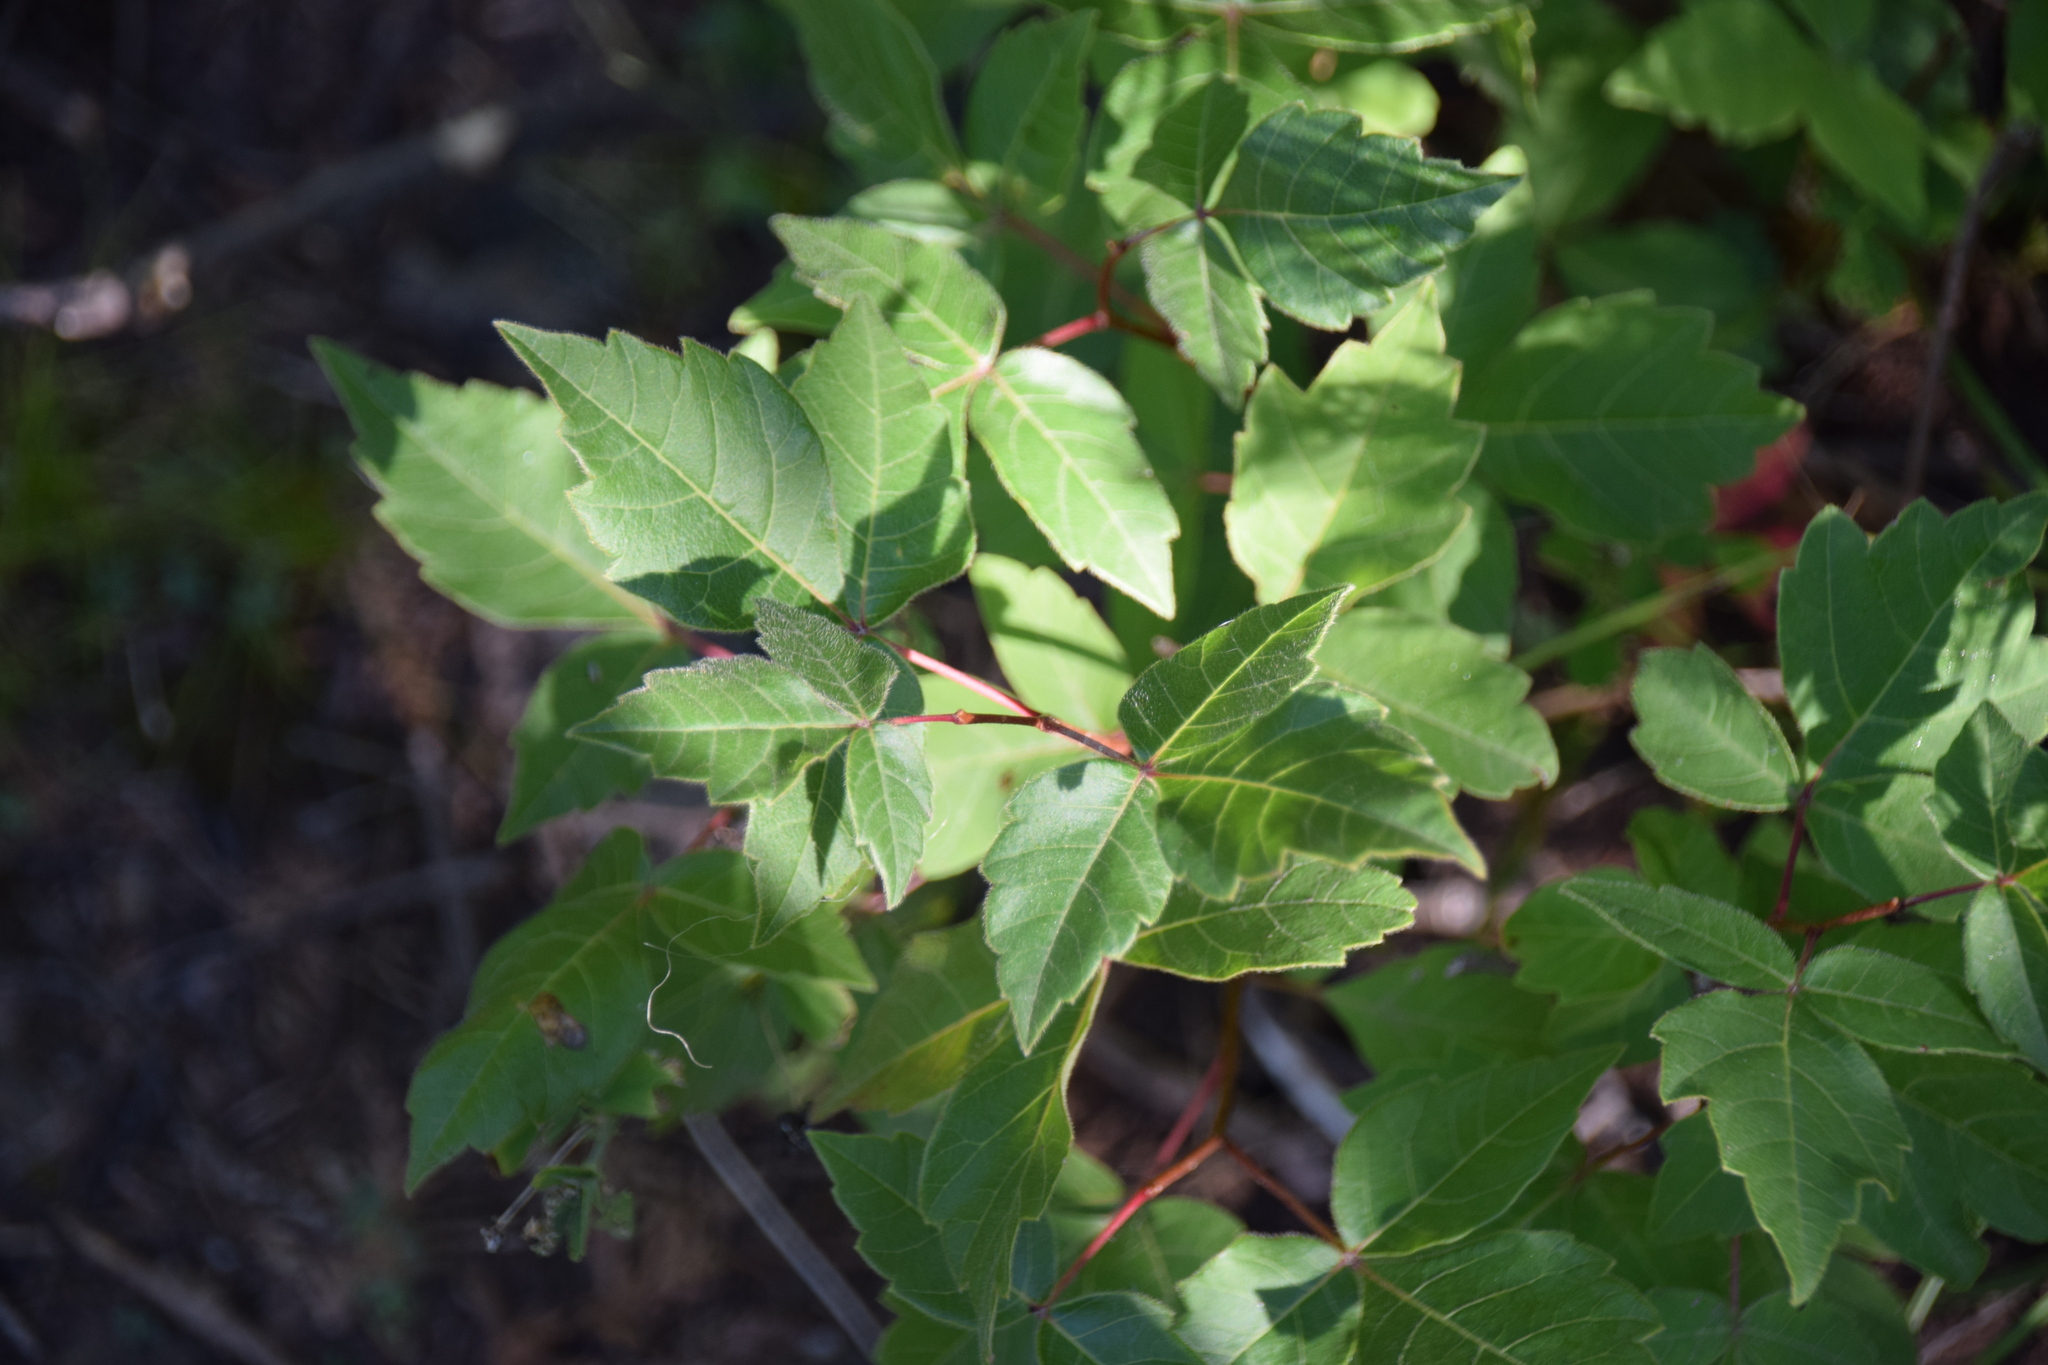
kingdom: Plantae
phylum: Tracheophyta
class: Magnoliopsida
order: Sapindales
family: Anacardiaceae
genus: Rhus
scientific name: Rhus aromatica
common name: Aromatic sumac
